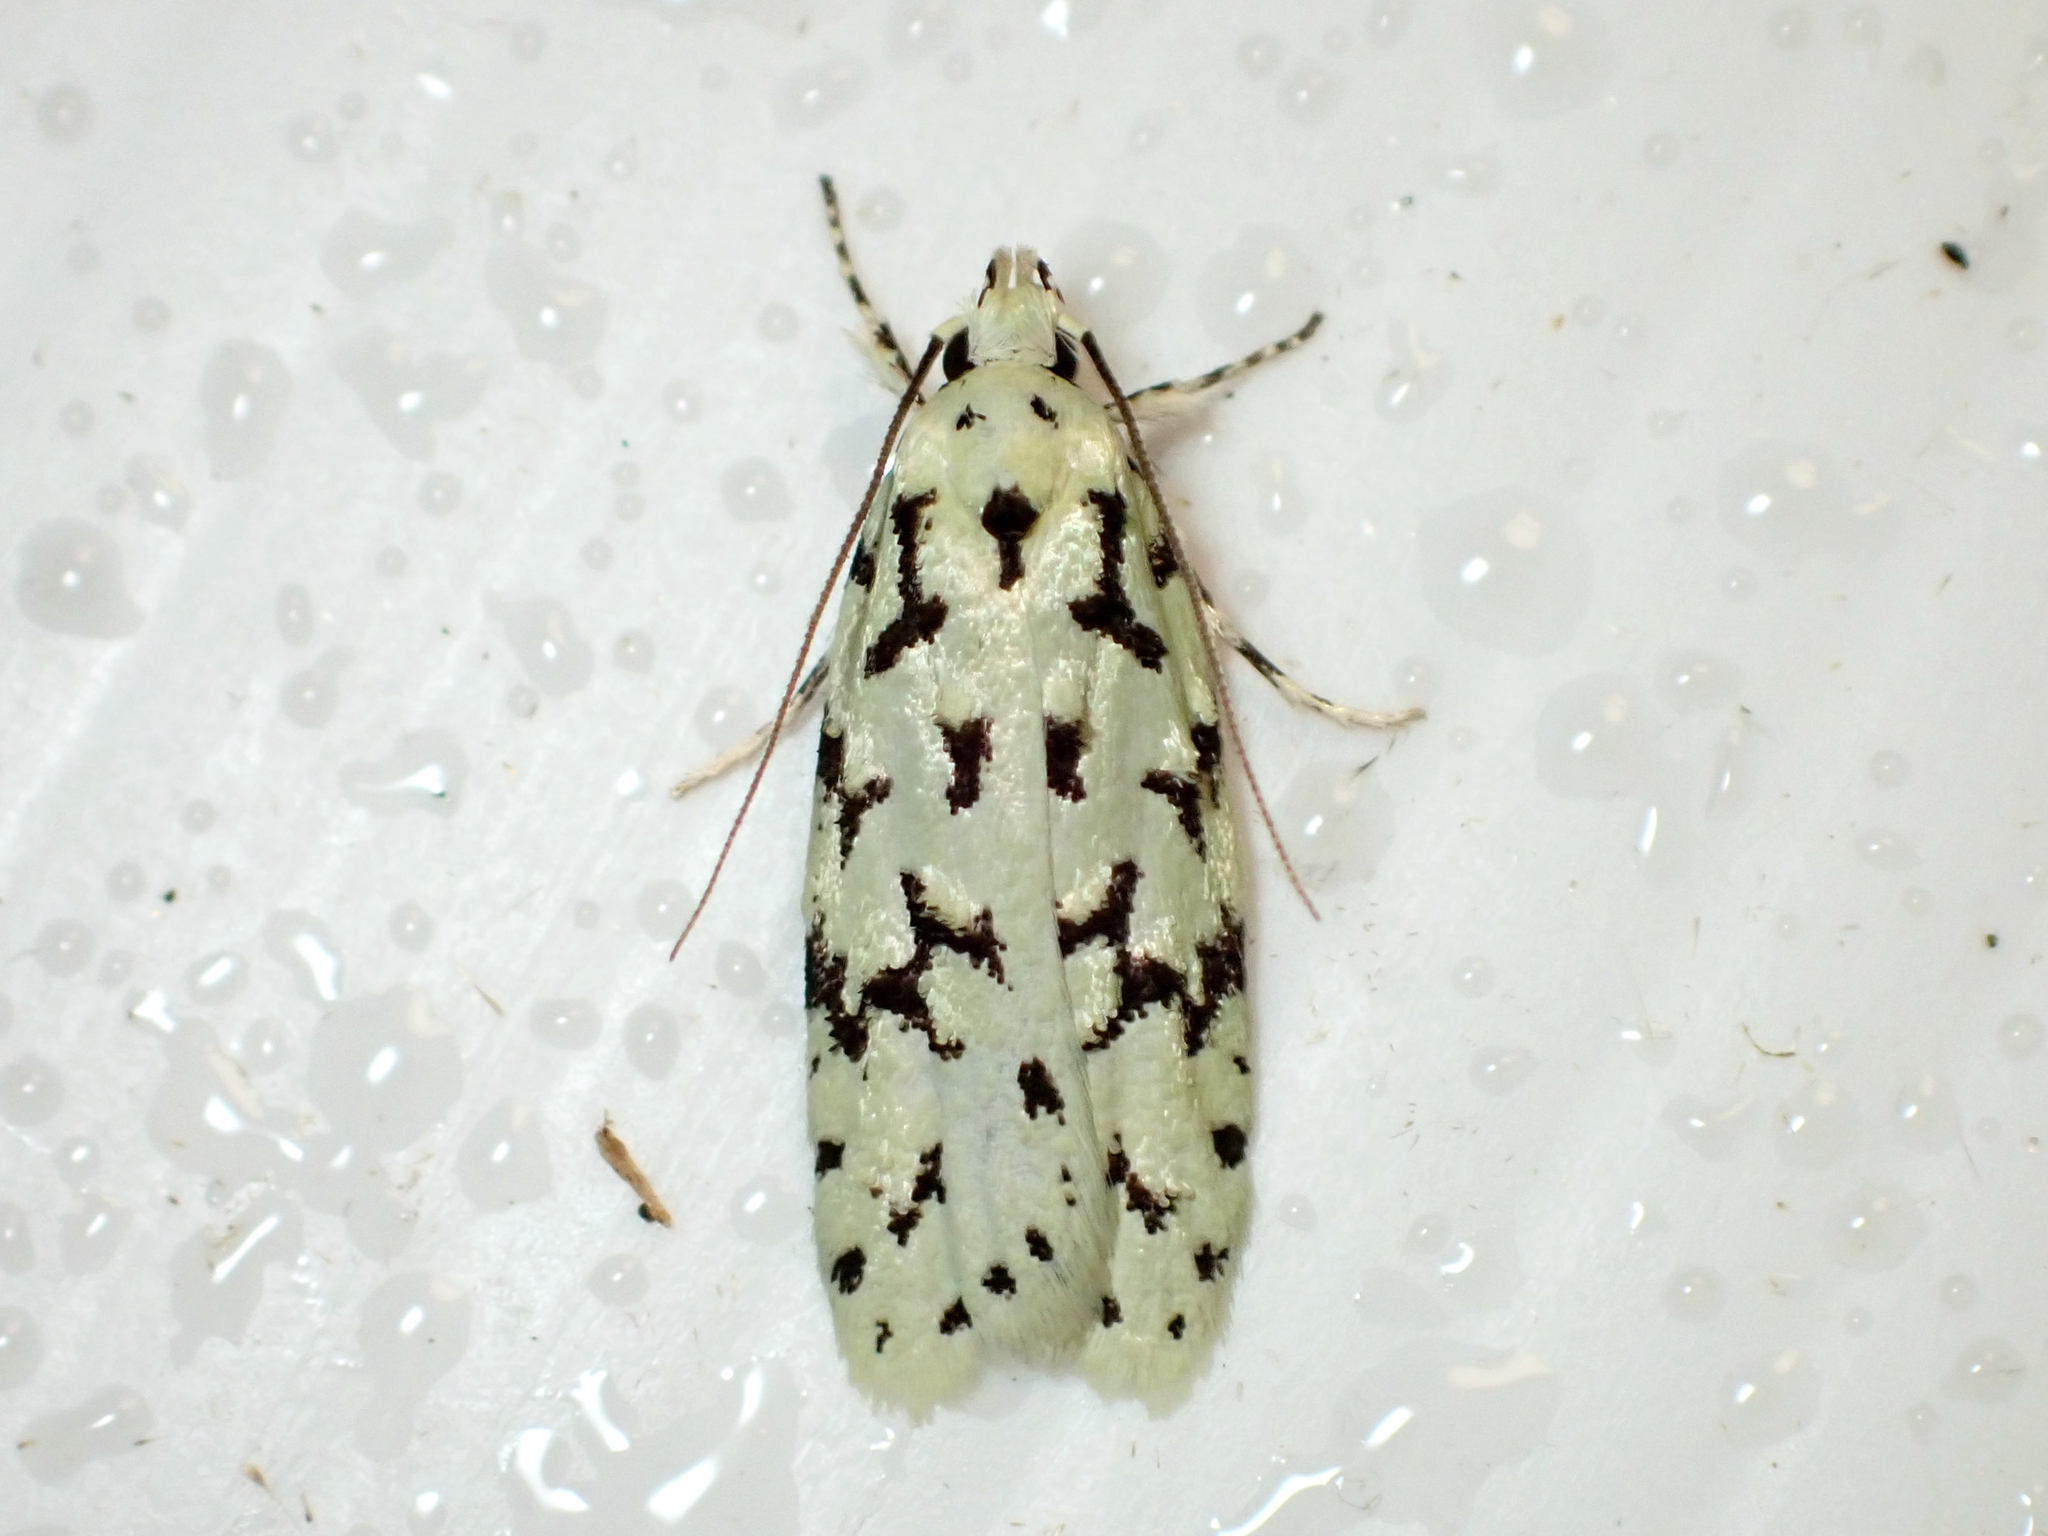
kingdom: Animalia
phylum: Arthropoda
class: Insecta
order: Lepidoptera
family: Oecophoridae
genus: Izatha
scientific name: Izatha huttoni
